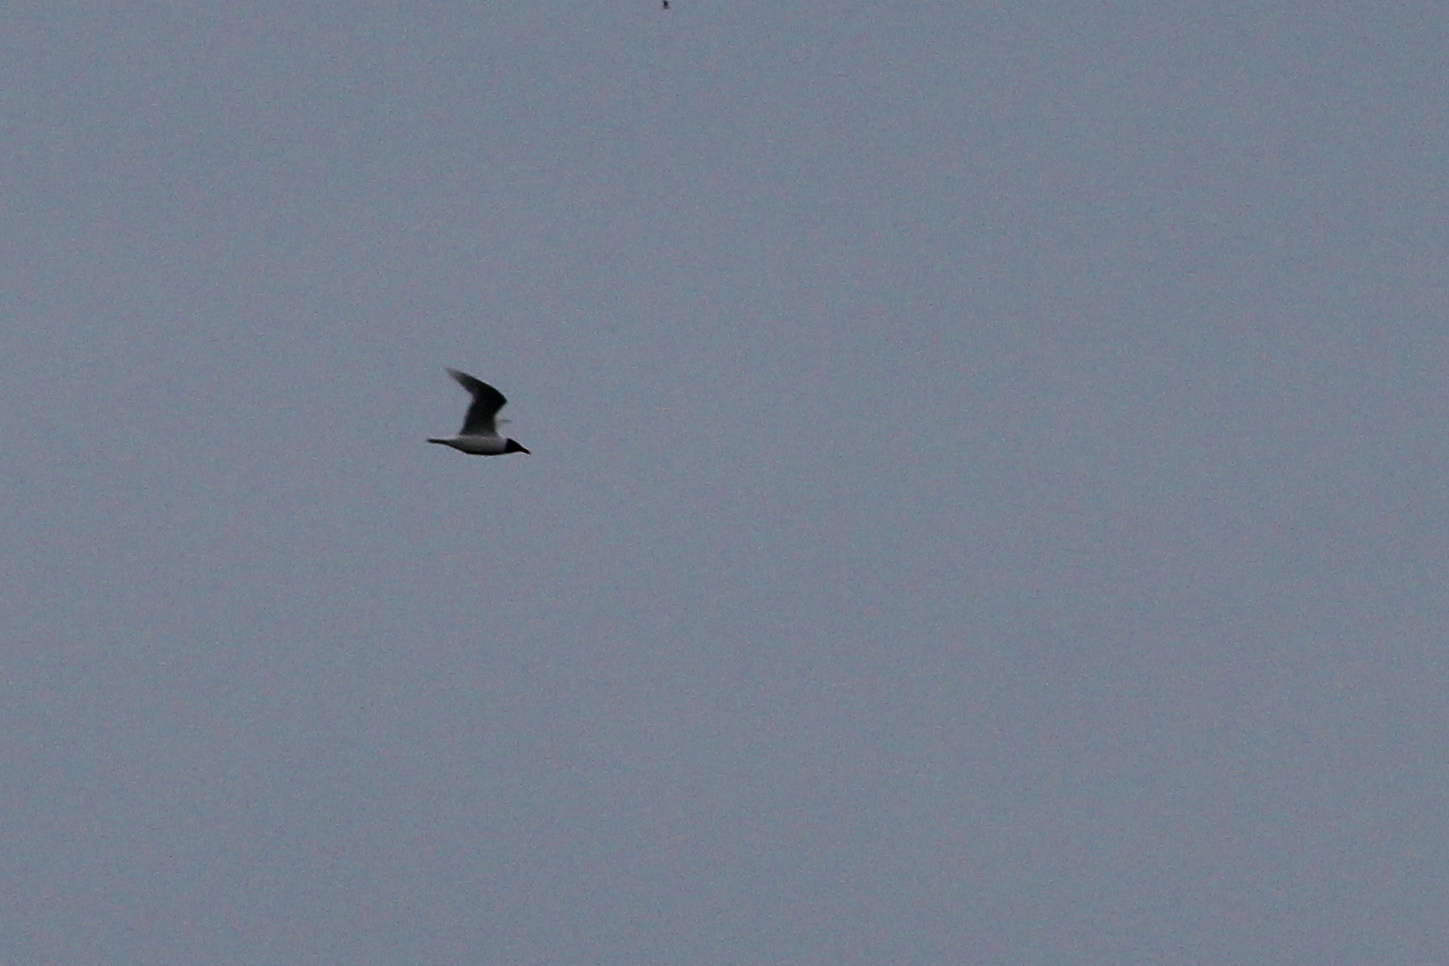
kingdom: Animalia
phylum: Chordata
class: Aves
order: Charadriiformes
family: Laridae
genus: Ichthyaetus
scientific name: Ichthyaetus melanocephalus
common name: Mediterranean gull
